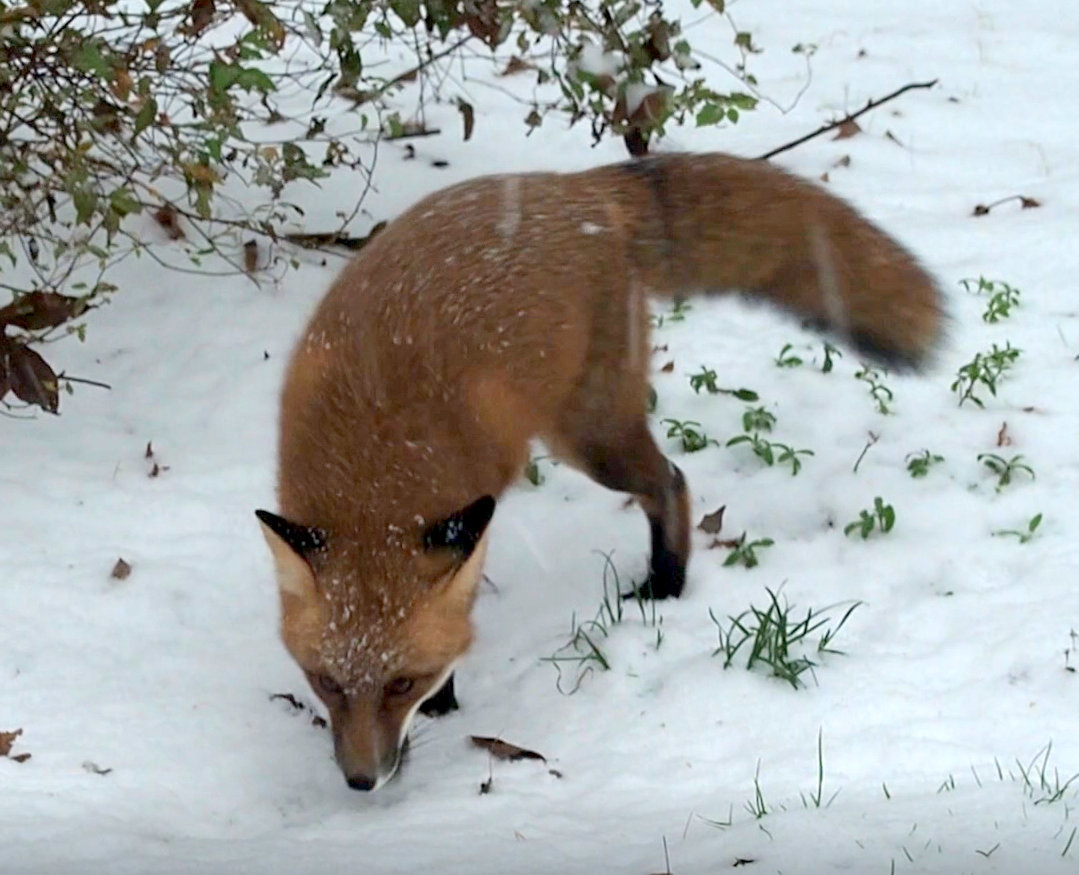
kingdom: Animalia
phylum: Chordata
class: Mammalia
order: Carnivora
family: Canidae
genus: Vulpes
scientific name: Vulpes vulpes
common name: Red fox
